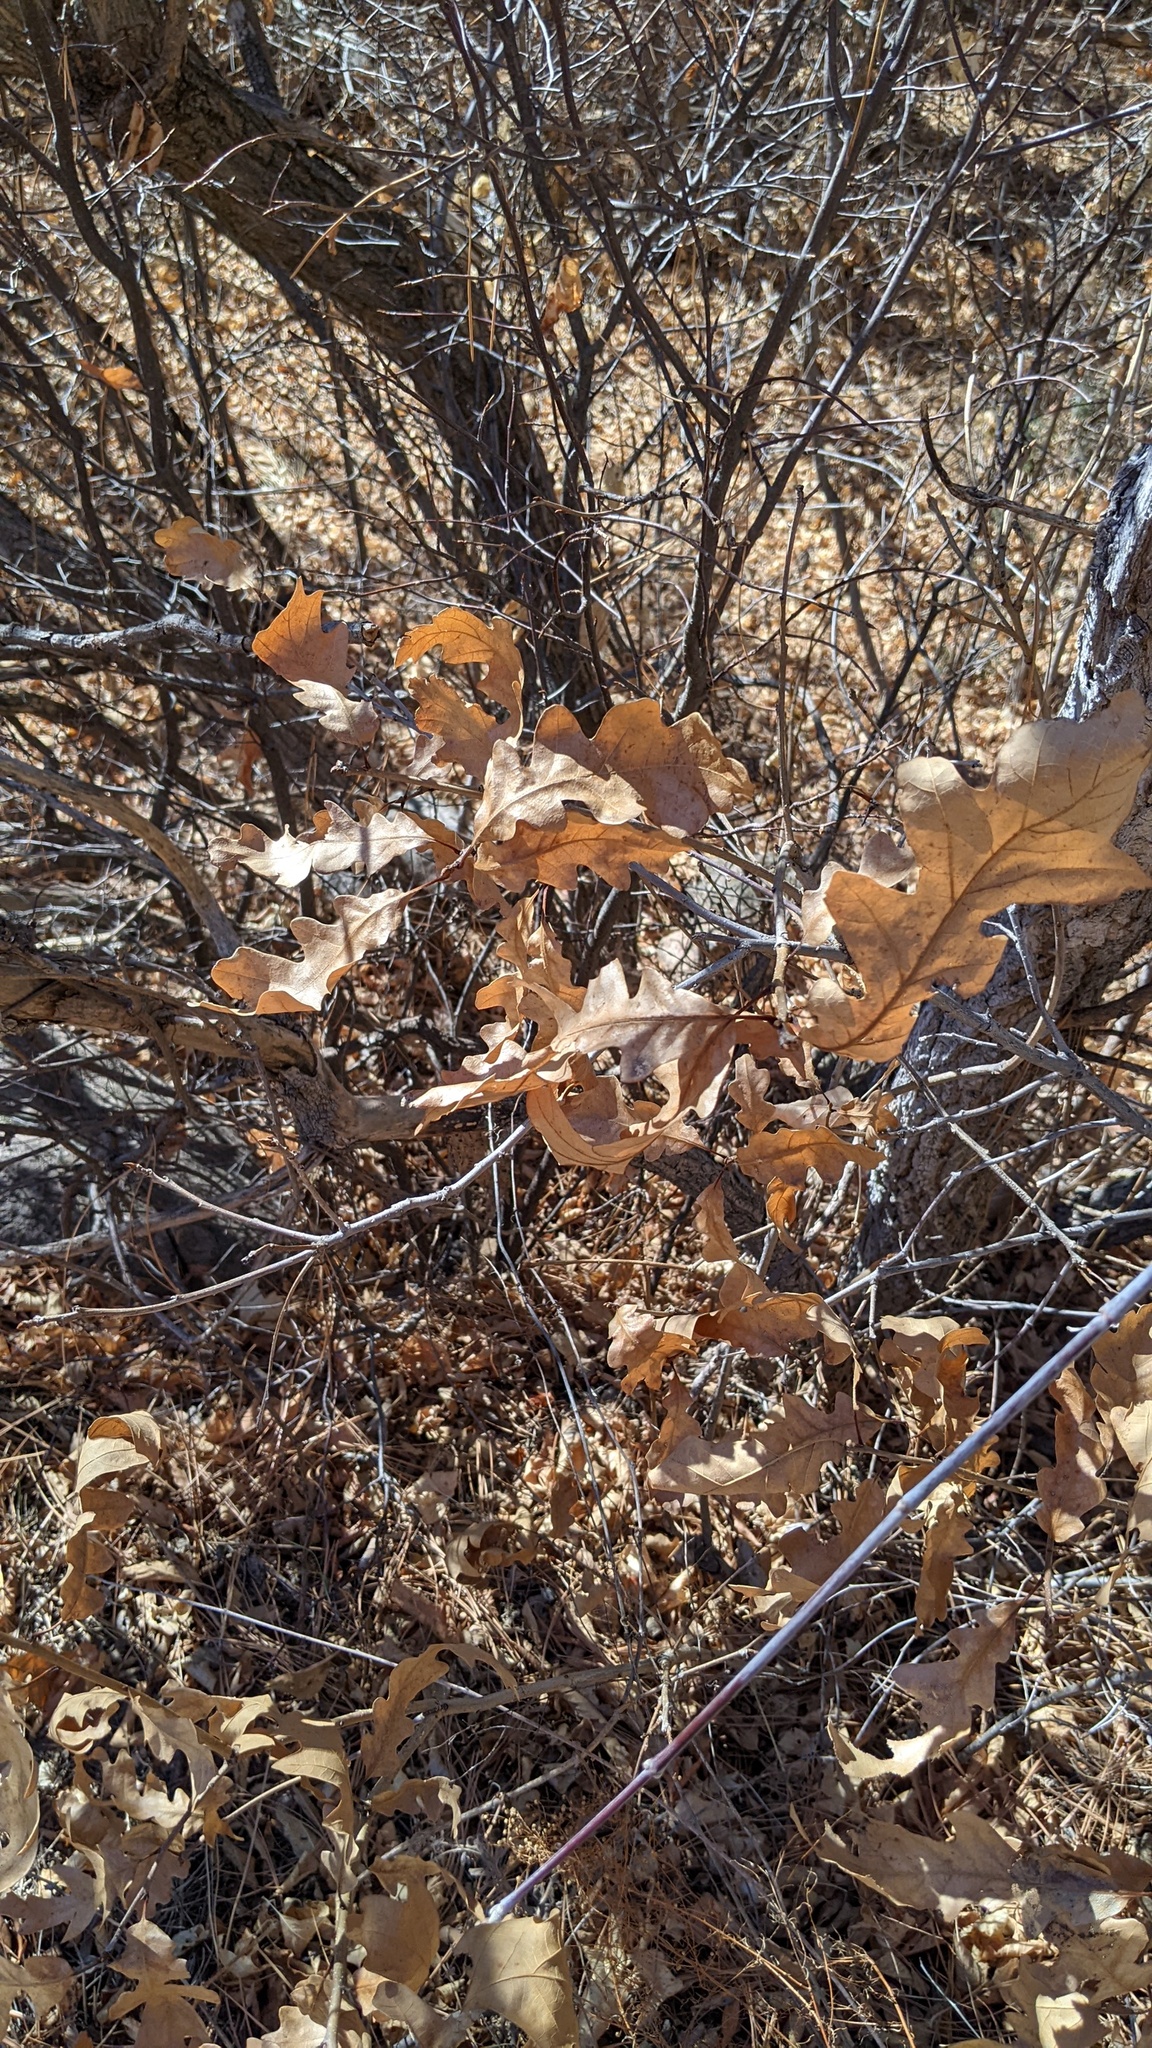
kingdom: Plantae
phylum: Tracheophyta
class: Magnoliopsida
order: Fagales
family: Fagaceae
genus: Quercus
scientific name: Quercus gambelii
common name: Gambel oak
